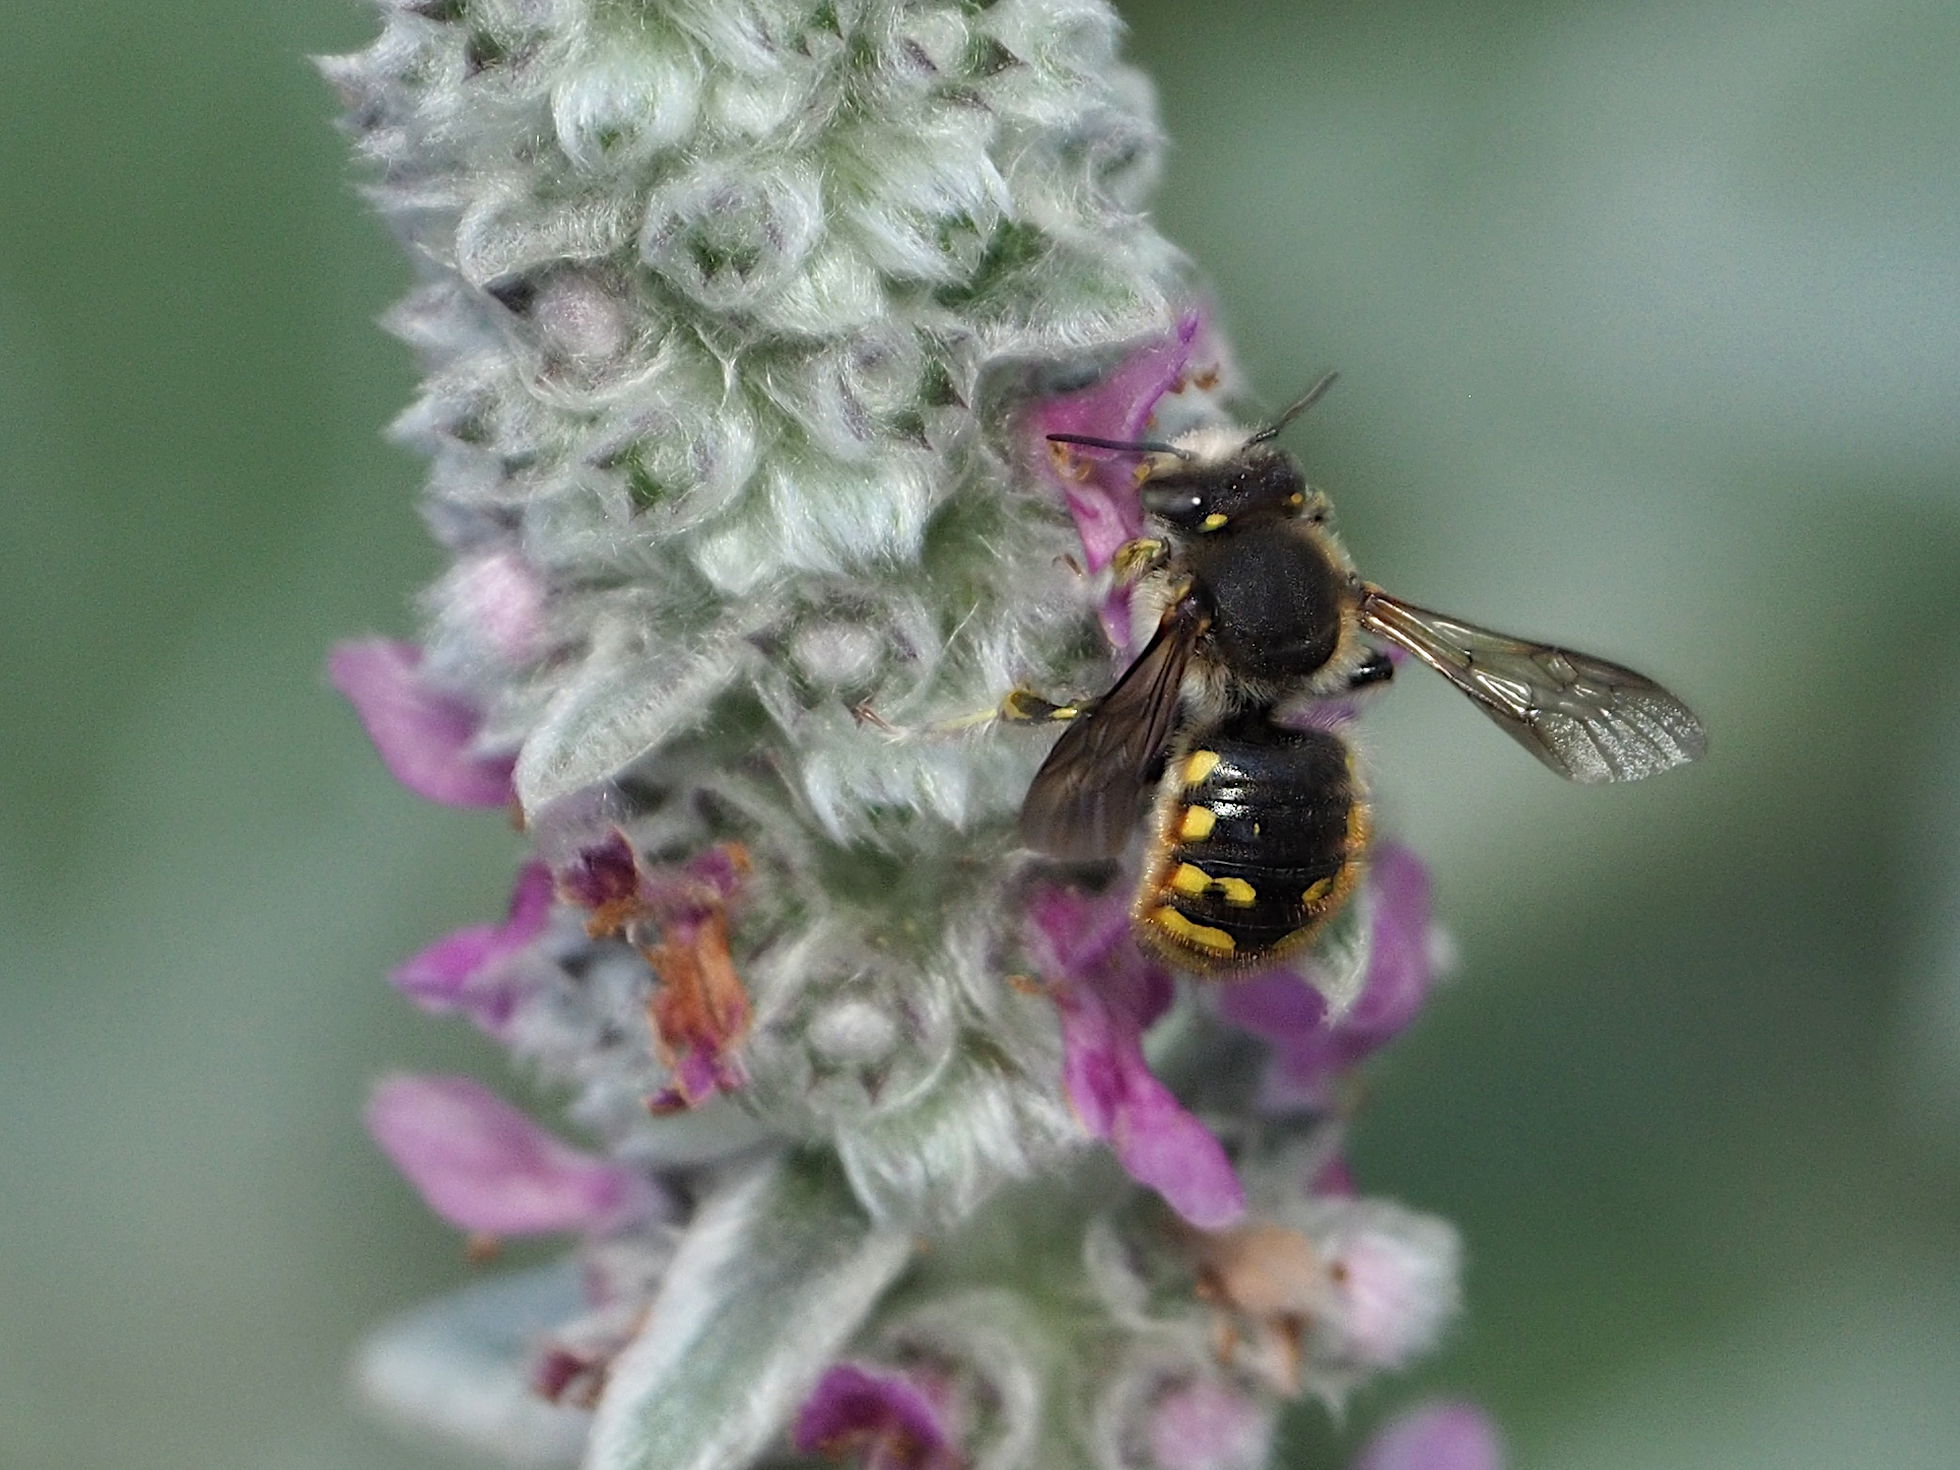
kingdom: Animalia
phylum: Arthropoda
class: Insecta
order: Hymenoptera
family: Megachilidae
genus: Anthidium
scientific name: Anthidium manicatum
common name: Wool carder bee
